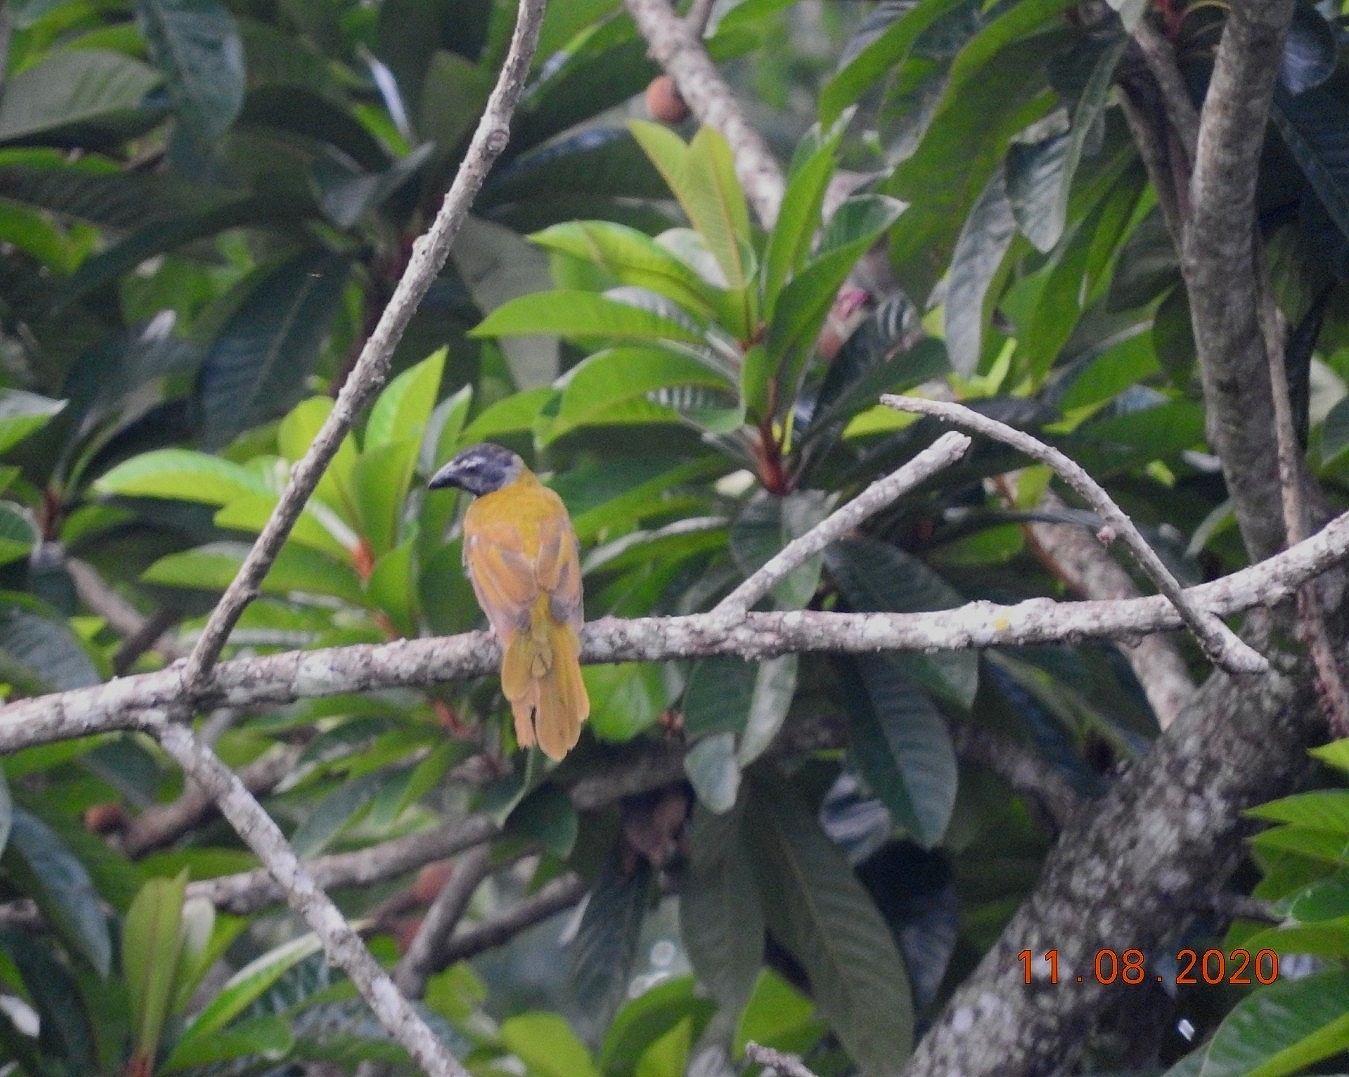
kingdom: Animalia
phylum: Chordata
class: Aves
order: Passeriformes
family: Thraupidae
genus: Saltator
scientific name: Saltator atriceps
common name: Black-headed saltator
